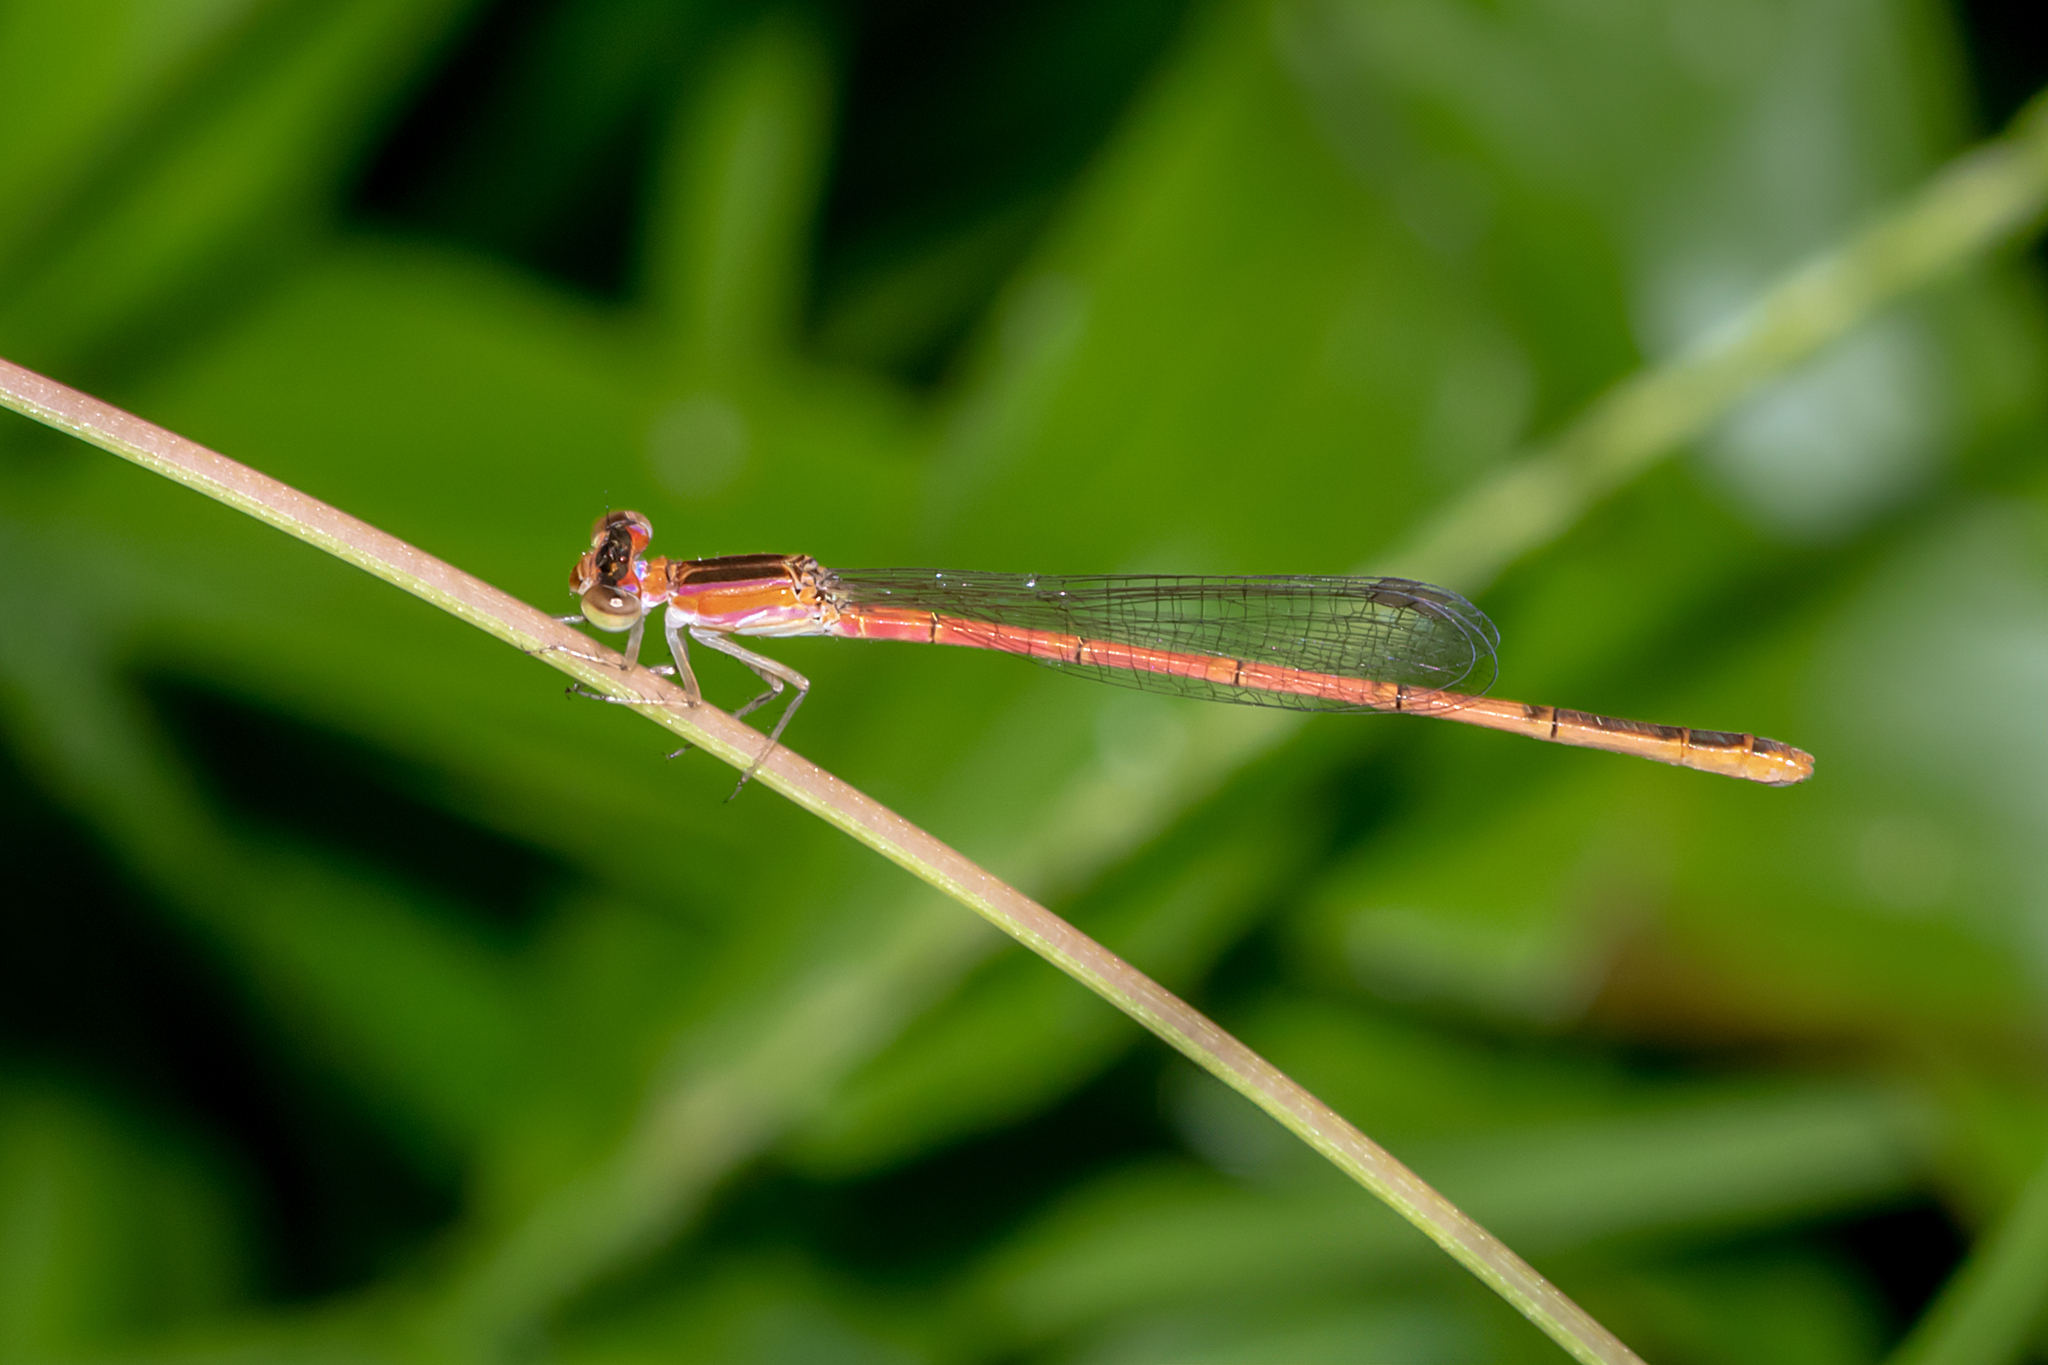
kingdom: Animalia
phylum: Arthropoda
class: Insecta
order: Odonata
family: Coenagrionidae
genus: Agriocnemis
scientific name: Agriocnemis pygmaea
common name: Pygmy wisp
